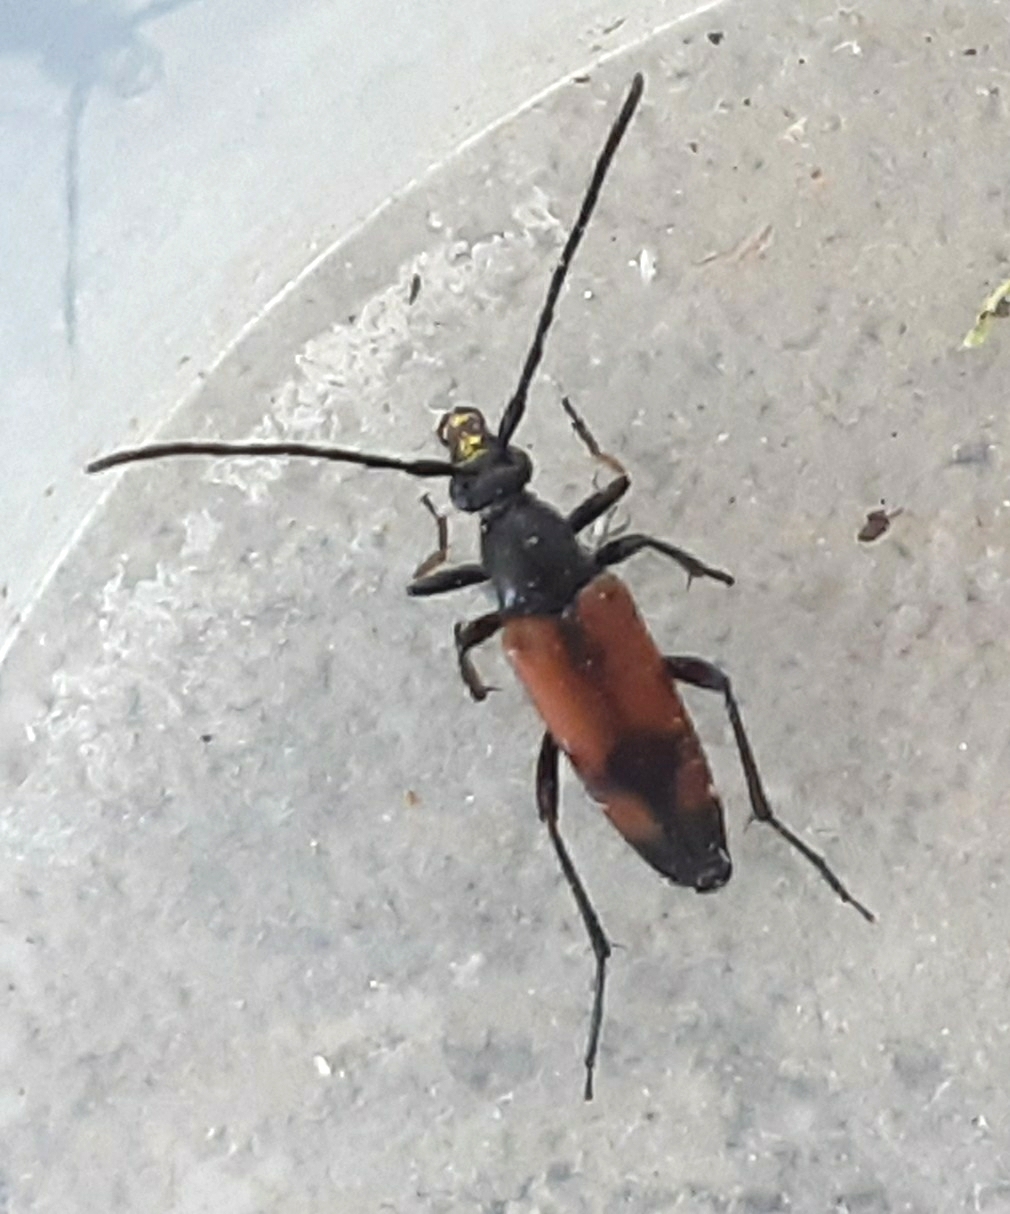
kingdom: Animalia
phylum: Arthropoda
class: Insecta
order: Coleoptera
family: Cerambycidae
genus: Stenurella
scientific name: Stenurella bifasciata
